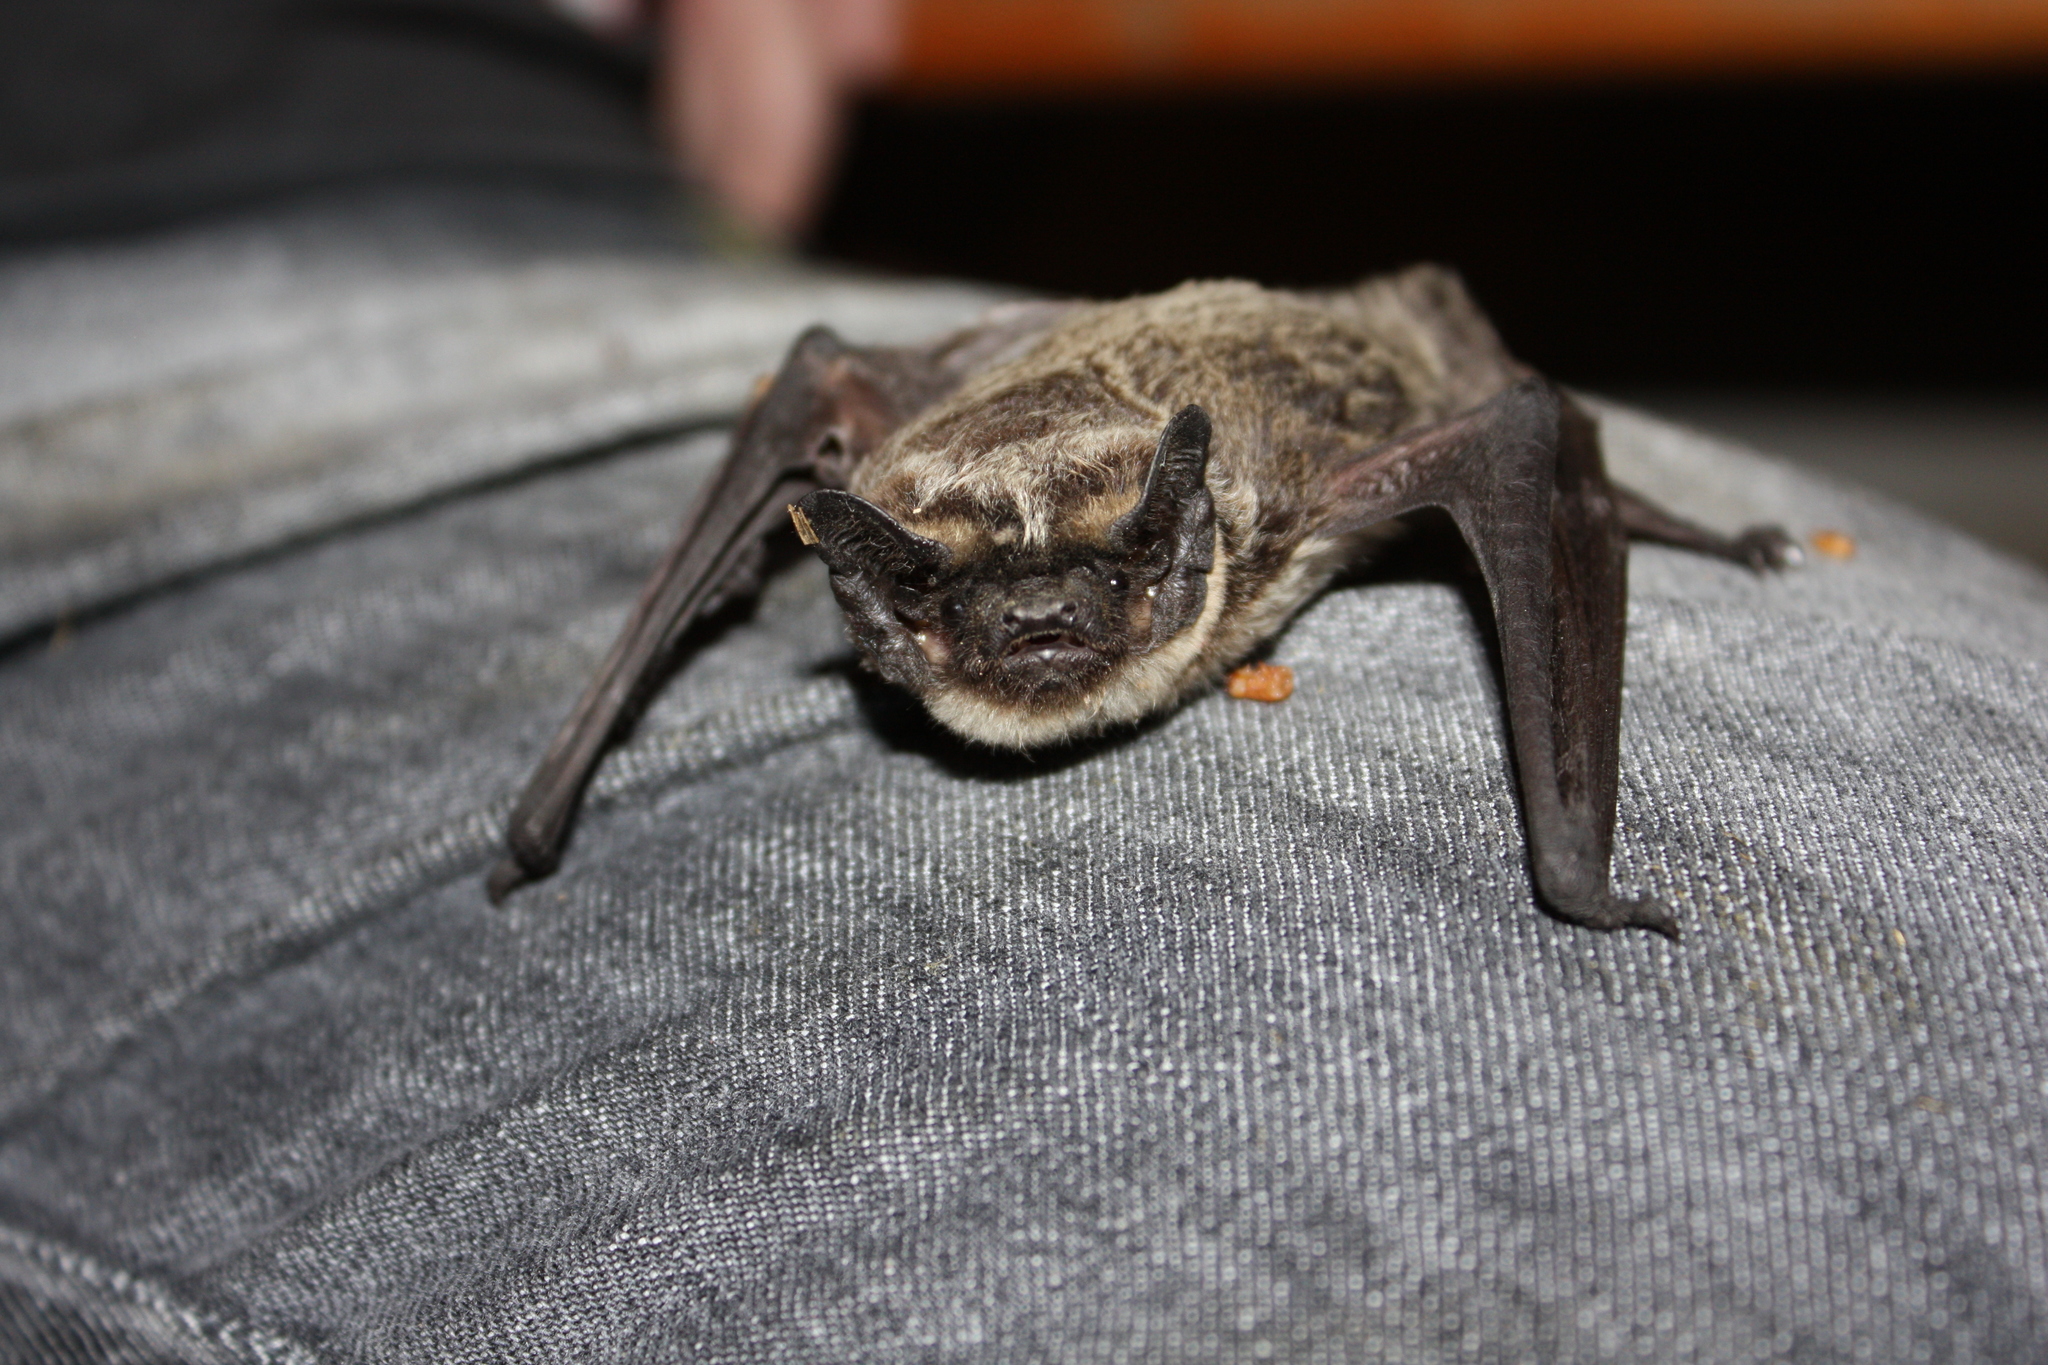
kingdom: Animalia
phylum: Chordata
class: Mammalia
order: Chiroptera
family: Vespertilionidae
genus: Vespertilio
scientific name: Vespertilio murinus
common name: Particolored bat
